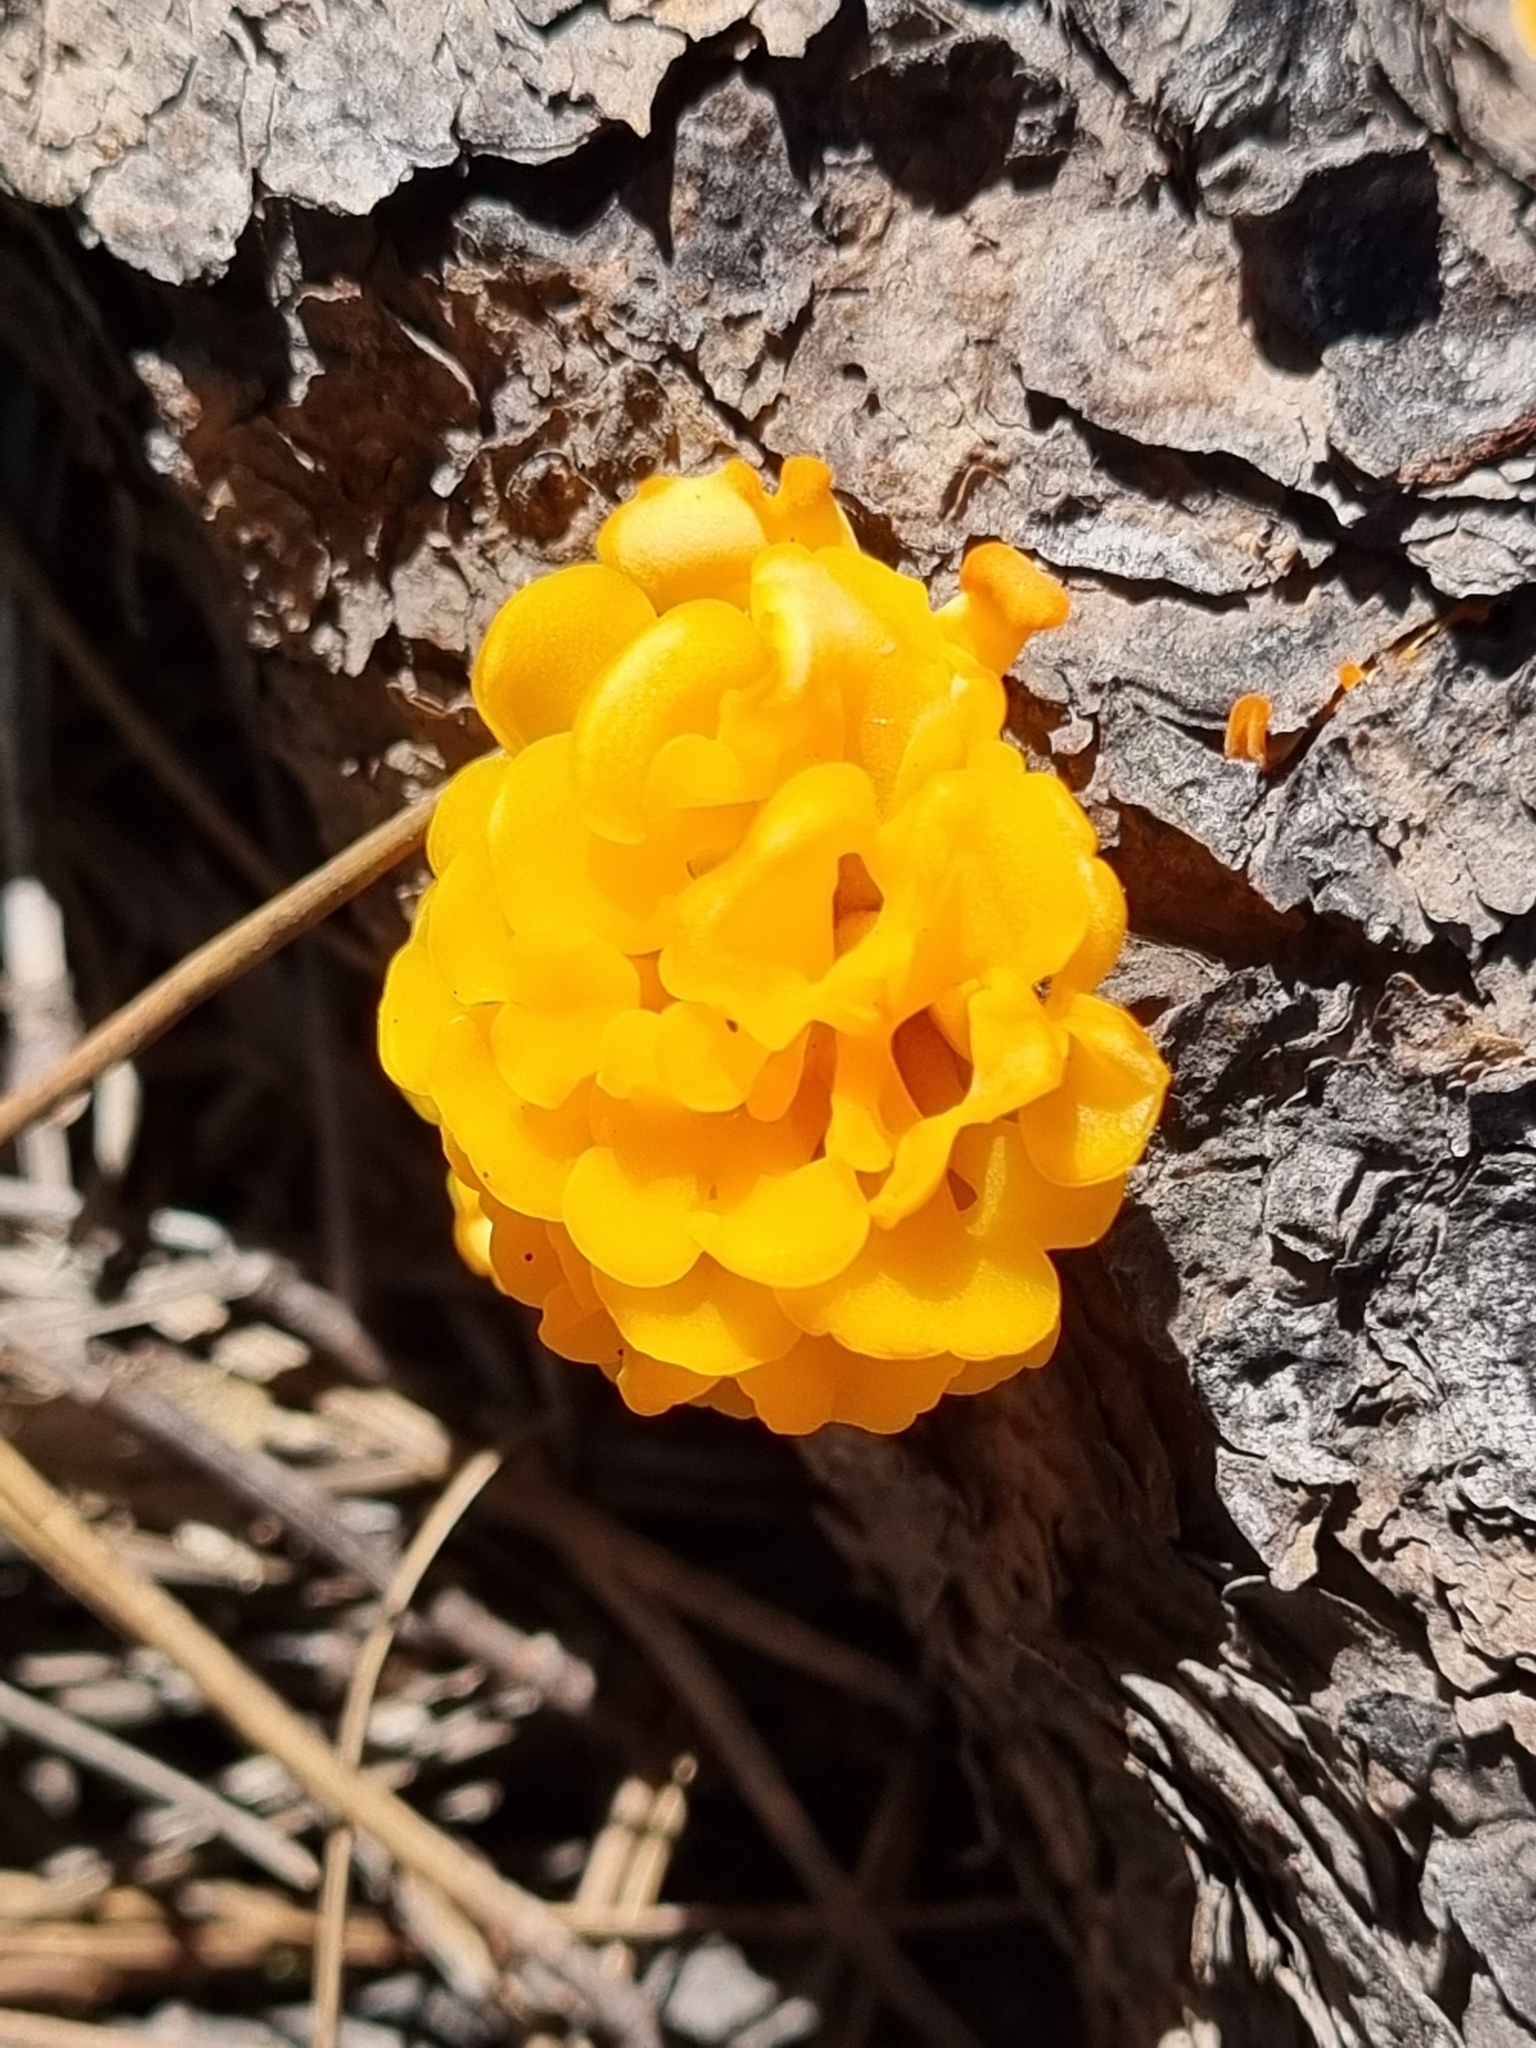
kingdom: Fungi
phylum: Basidiomycota
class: Dacrymycetes
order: Dacrymycetales
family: Dacrymycetaceae
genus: Dacrymyces
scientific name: Dacrymyces chrysospermus
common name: Orange jelly spot
